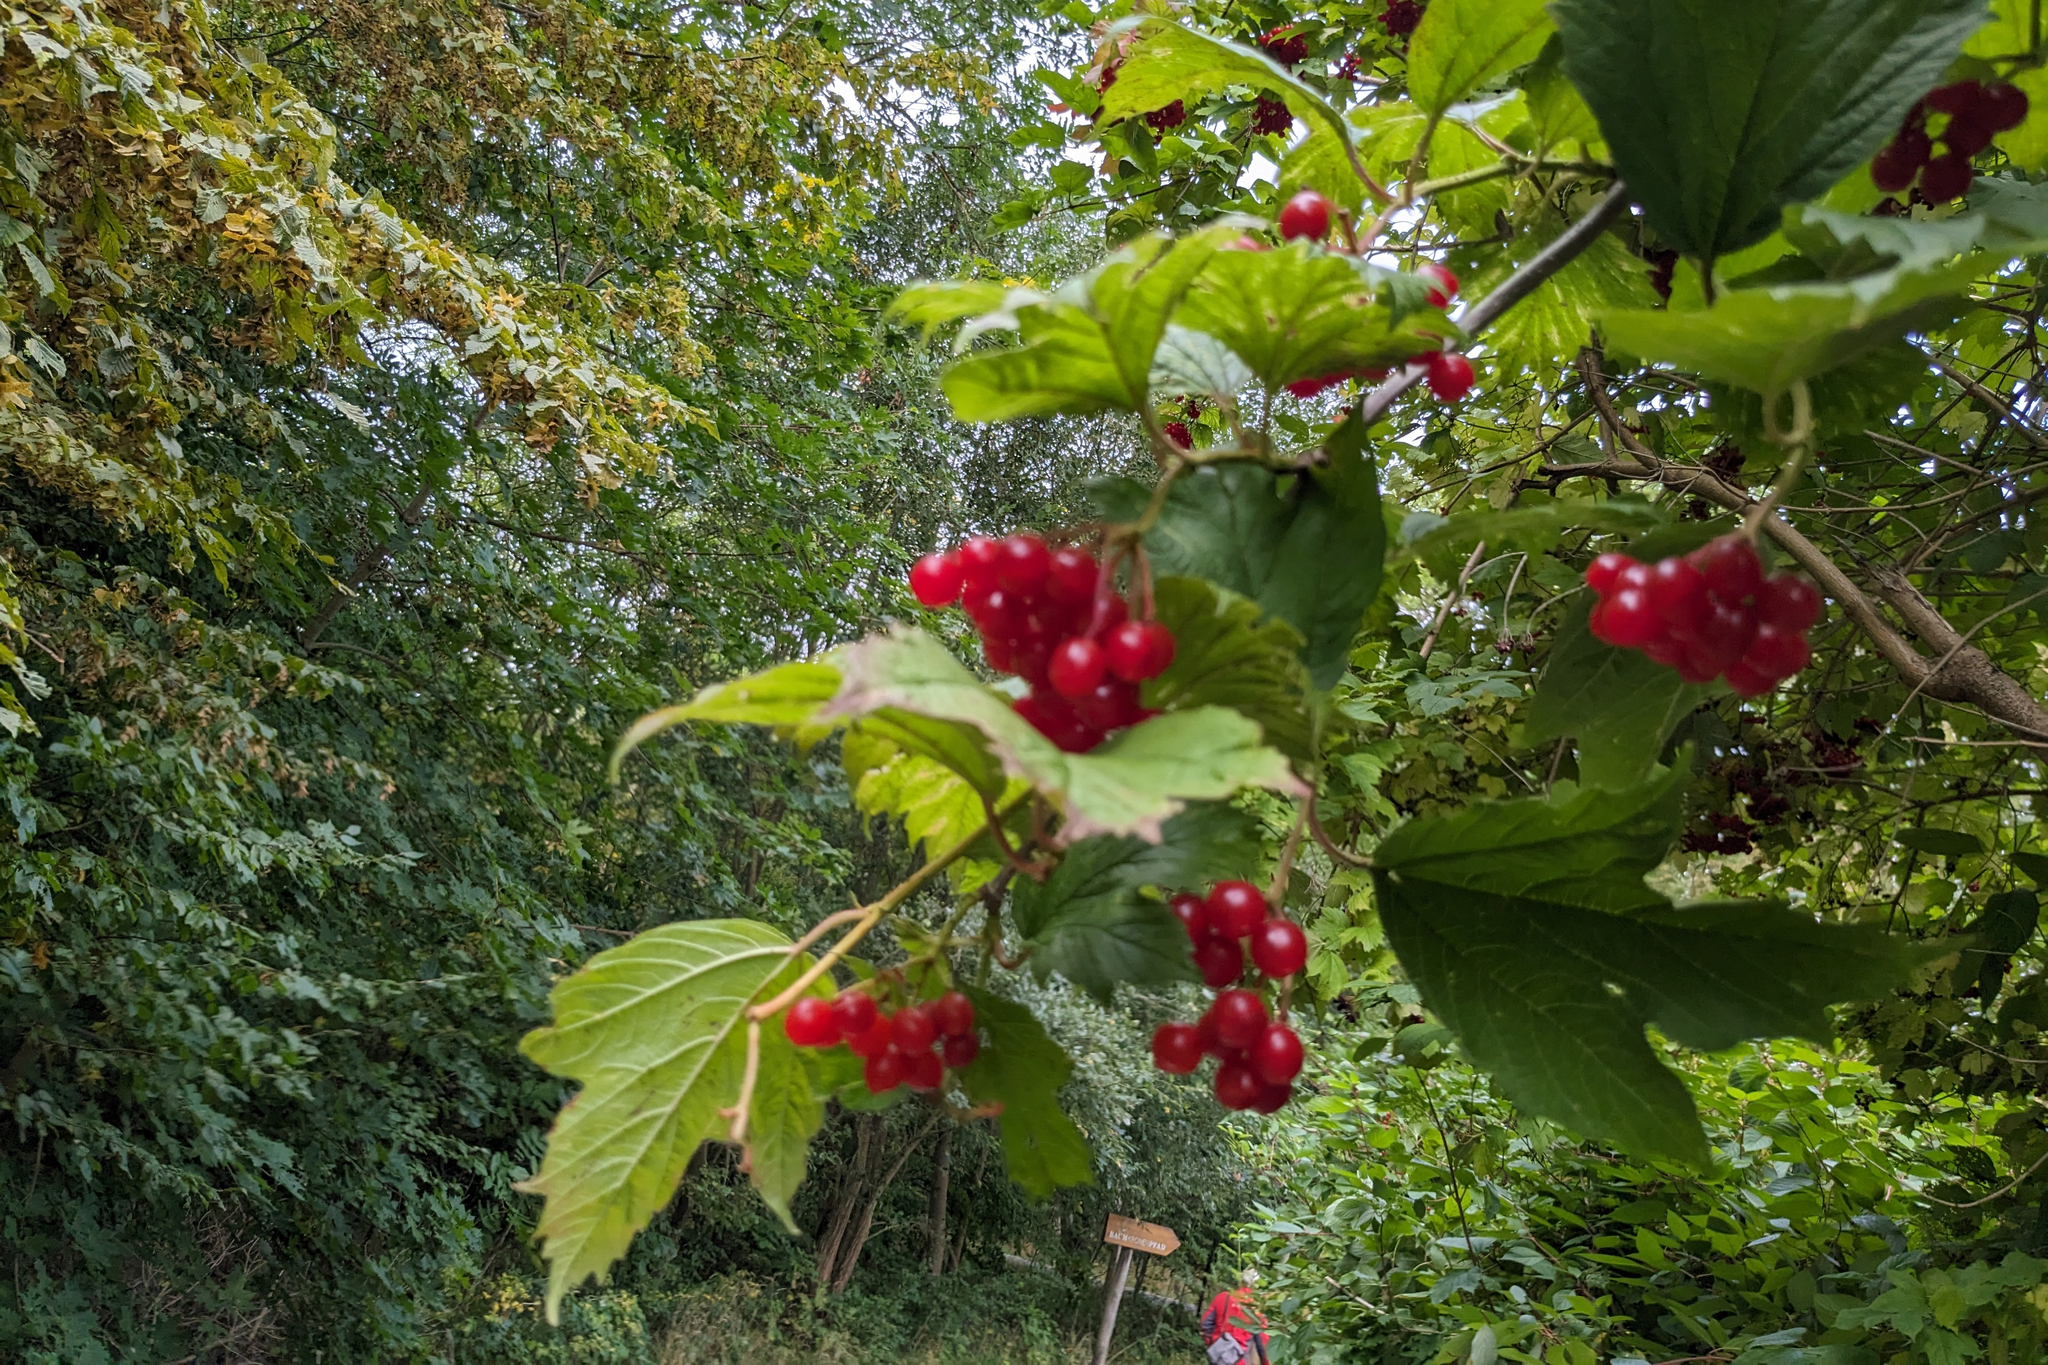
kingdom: Plantae
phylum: Tracheophyta
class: Magnoliopsida
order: Dipsacales
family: Viburnaceae
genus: Viburnum
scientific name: Viburnum opulus
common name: Guelder-rose
